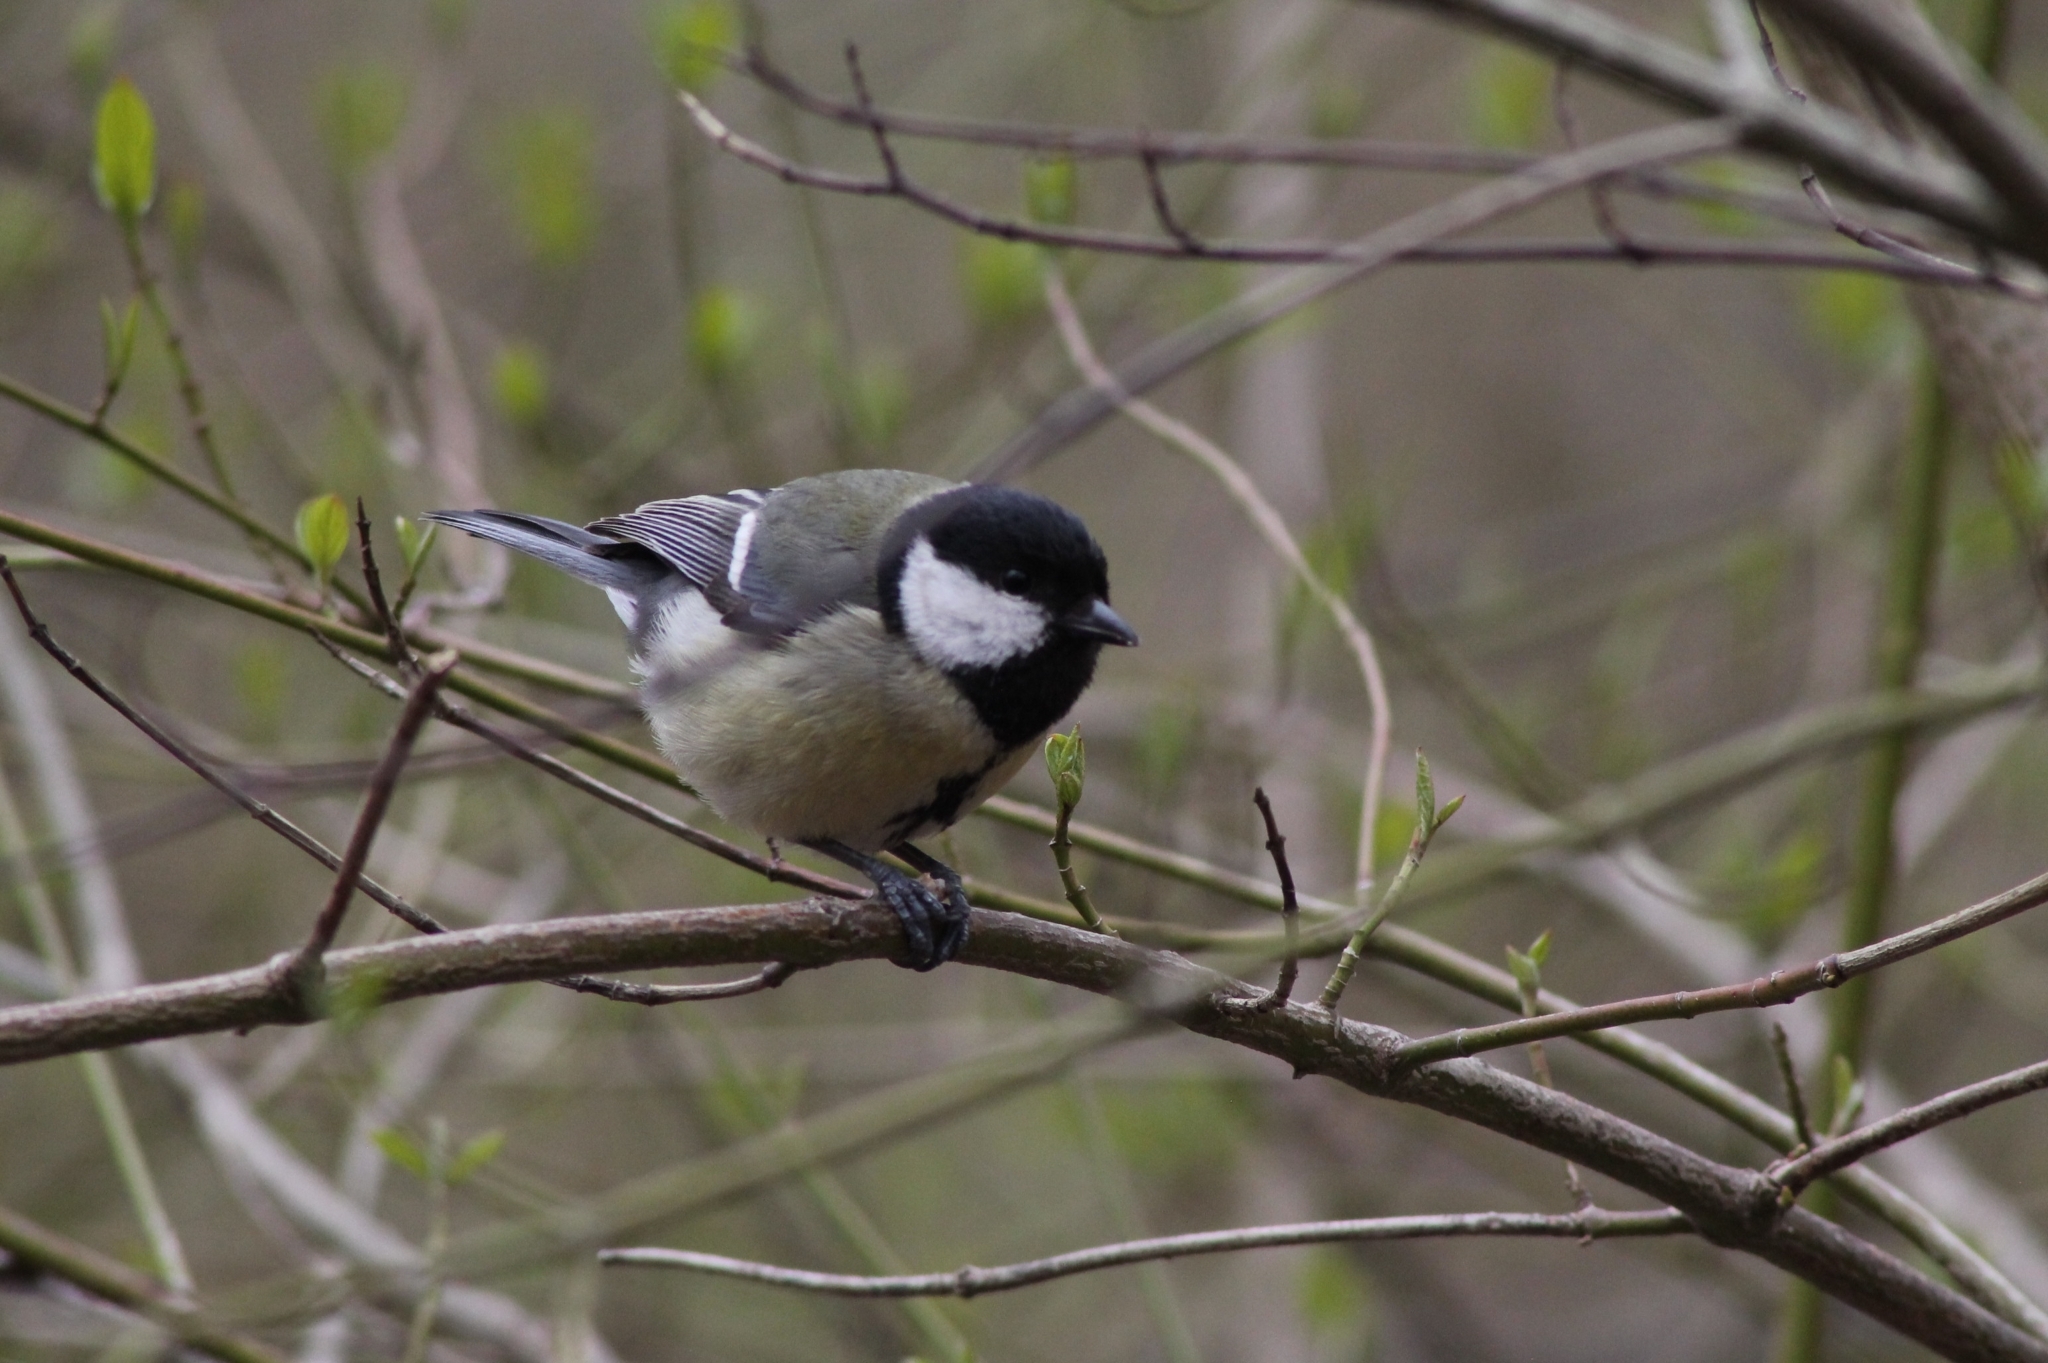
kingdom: Animalia
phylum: Chordata
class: Aves
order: Passeriformes
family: Paridae
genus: Parus
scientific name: Parus major
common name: Great tit
